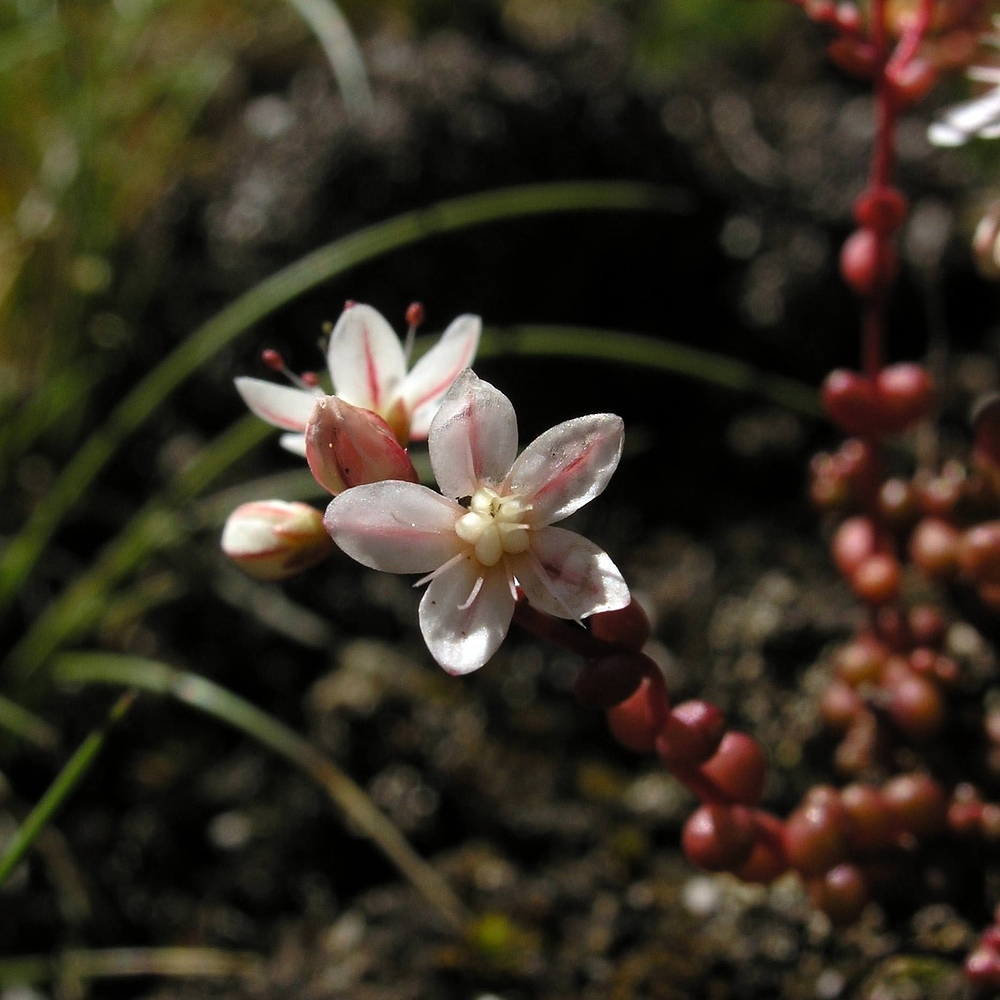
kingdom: Plantae
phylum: Tracheophyta
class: Magnoliopsida
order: Saxifragales
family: Crassulaceae
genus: Sedum
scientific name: Sedum brevifolium
